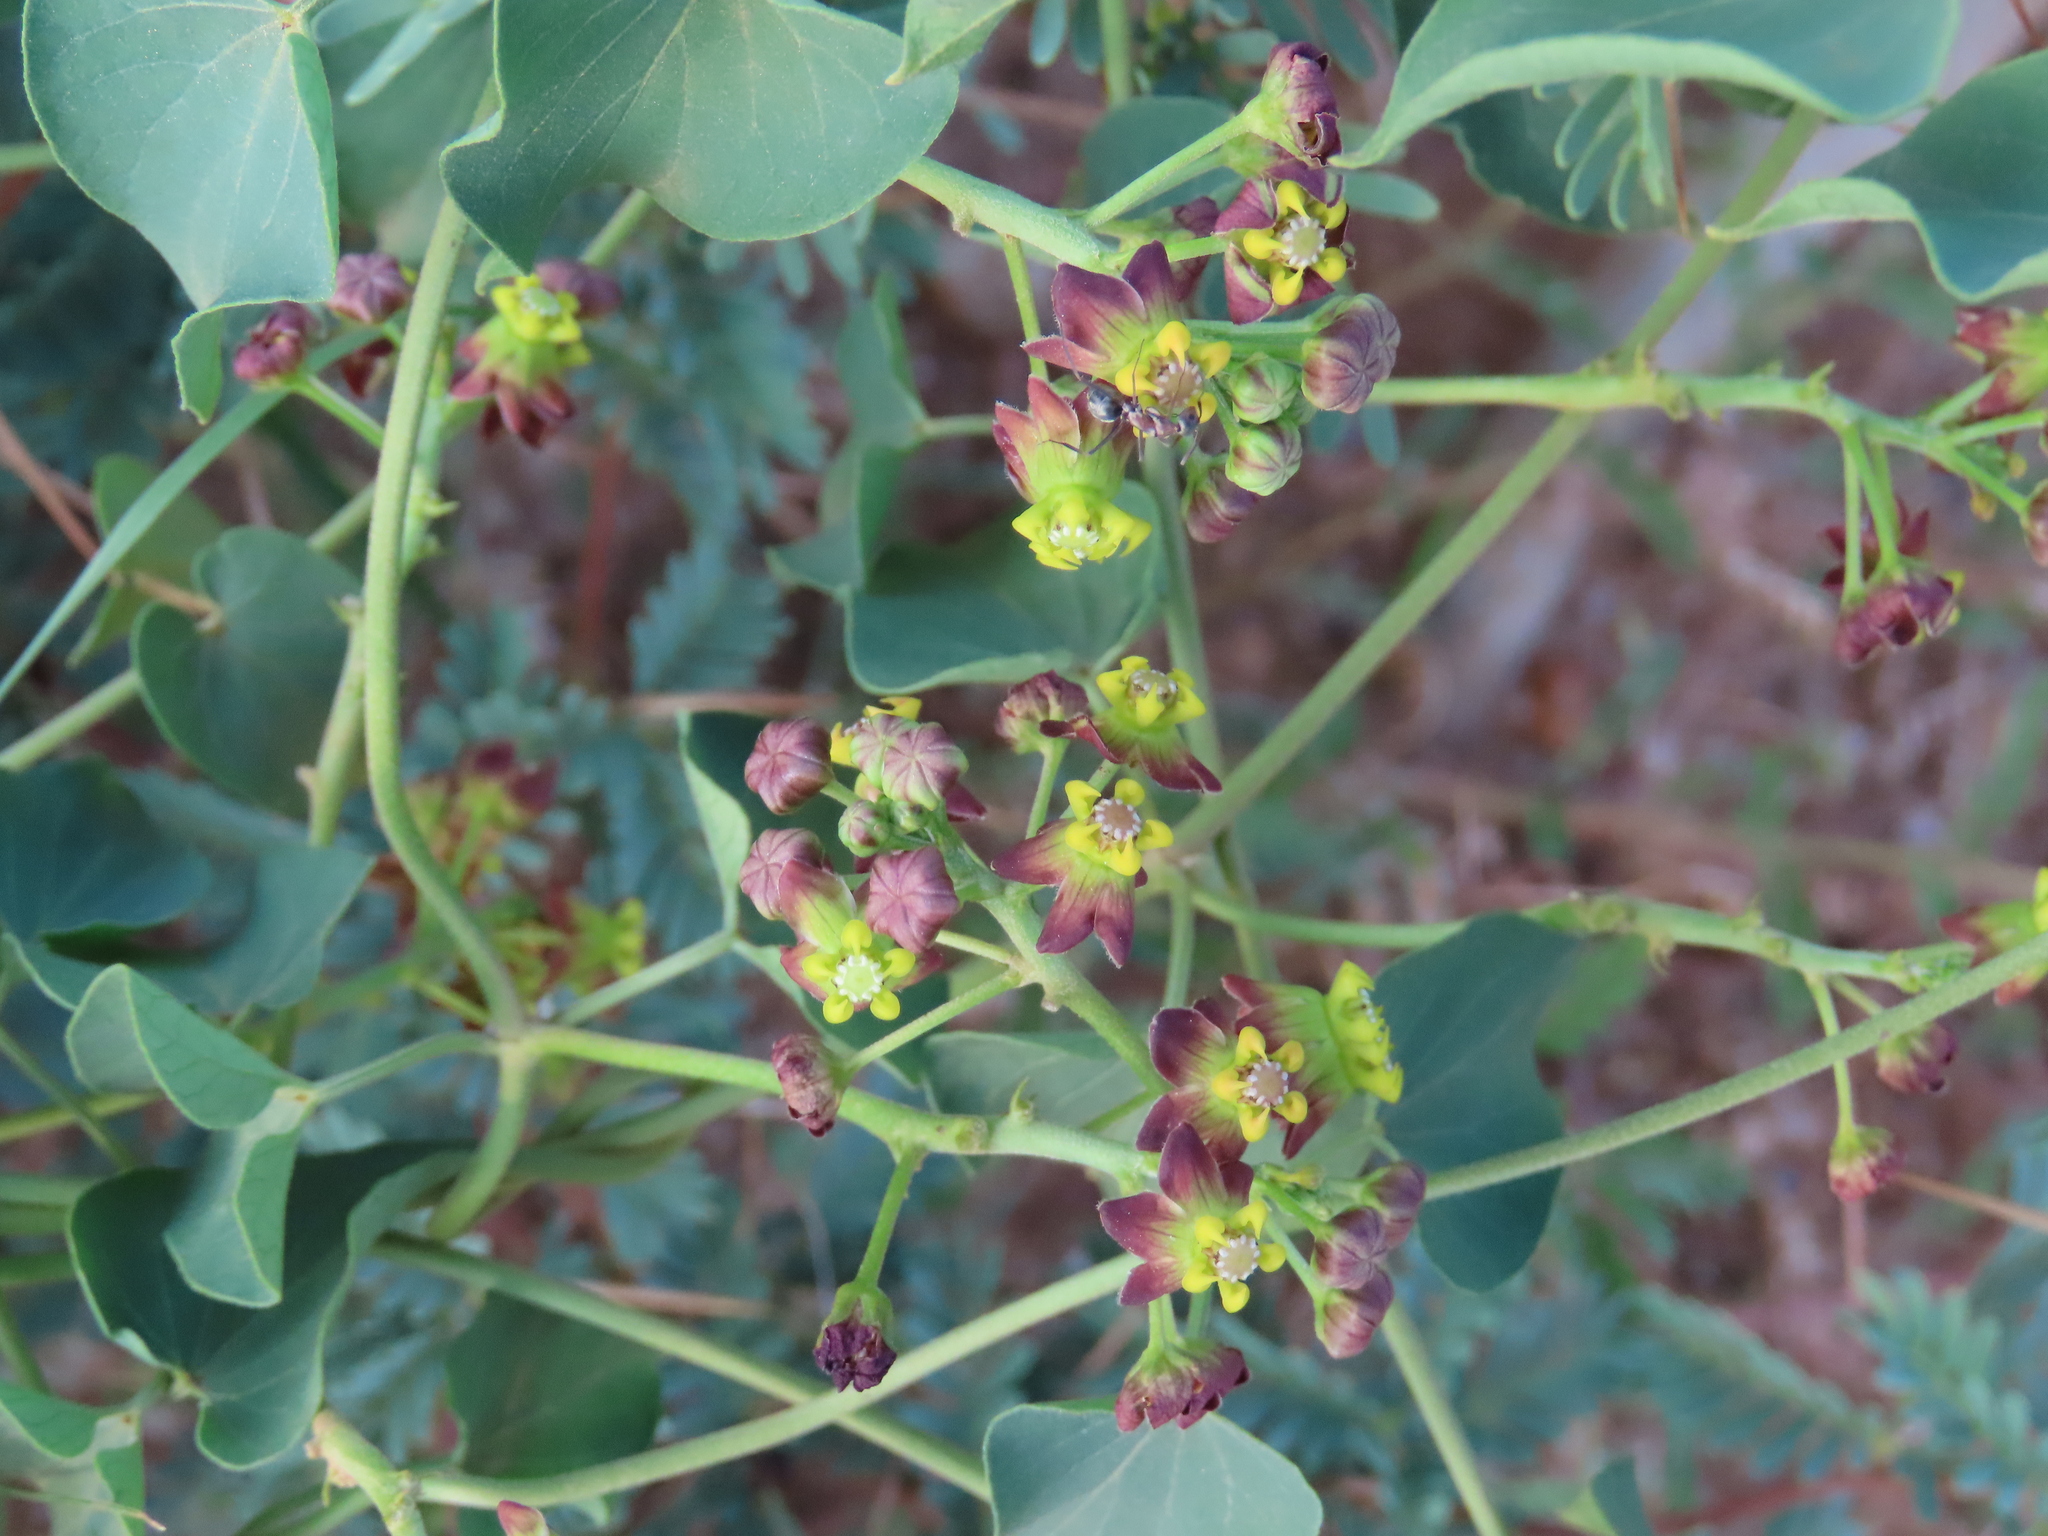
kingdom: Plantae
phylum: Tracheophyta
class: Magnoliopsida
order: Gentianales
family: Apocynaceae
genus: Cynanchum
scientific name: Cynanchum
